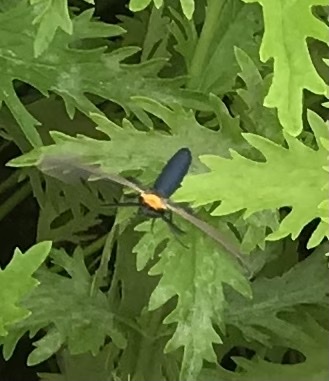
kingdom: Animalia
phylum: Arthropoda
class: Insecta
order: Lepidoptera
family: Erebidae
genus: Cisseps
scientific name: Cisseps fulvicollis
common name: Yellow-collared scape moth
